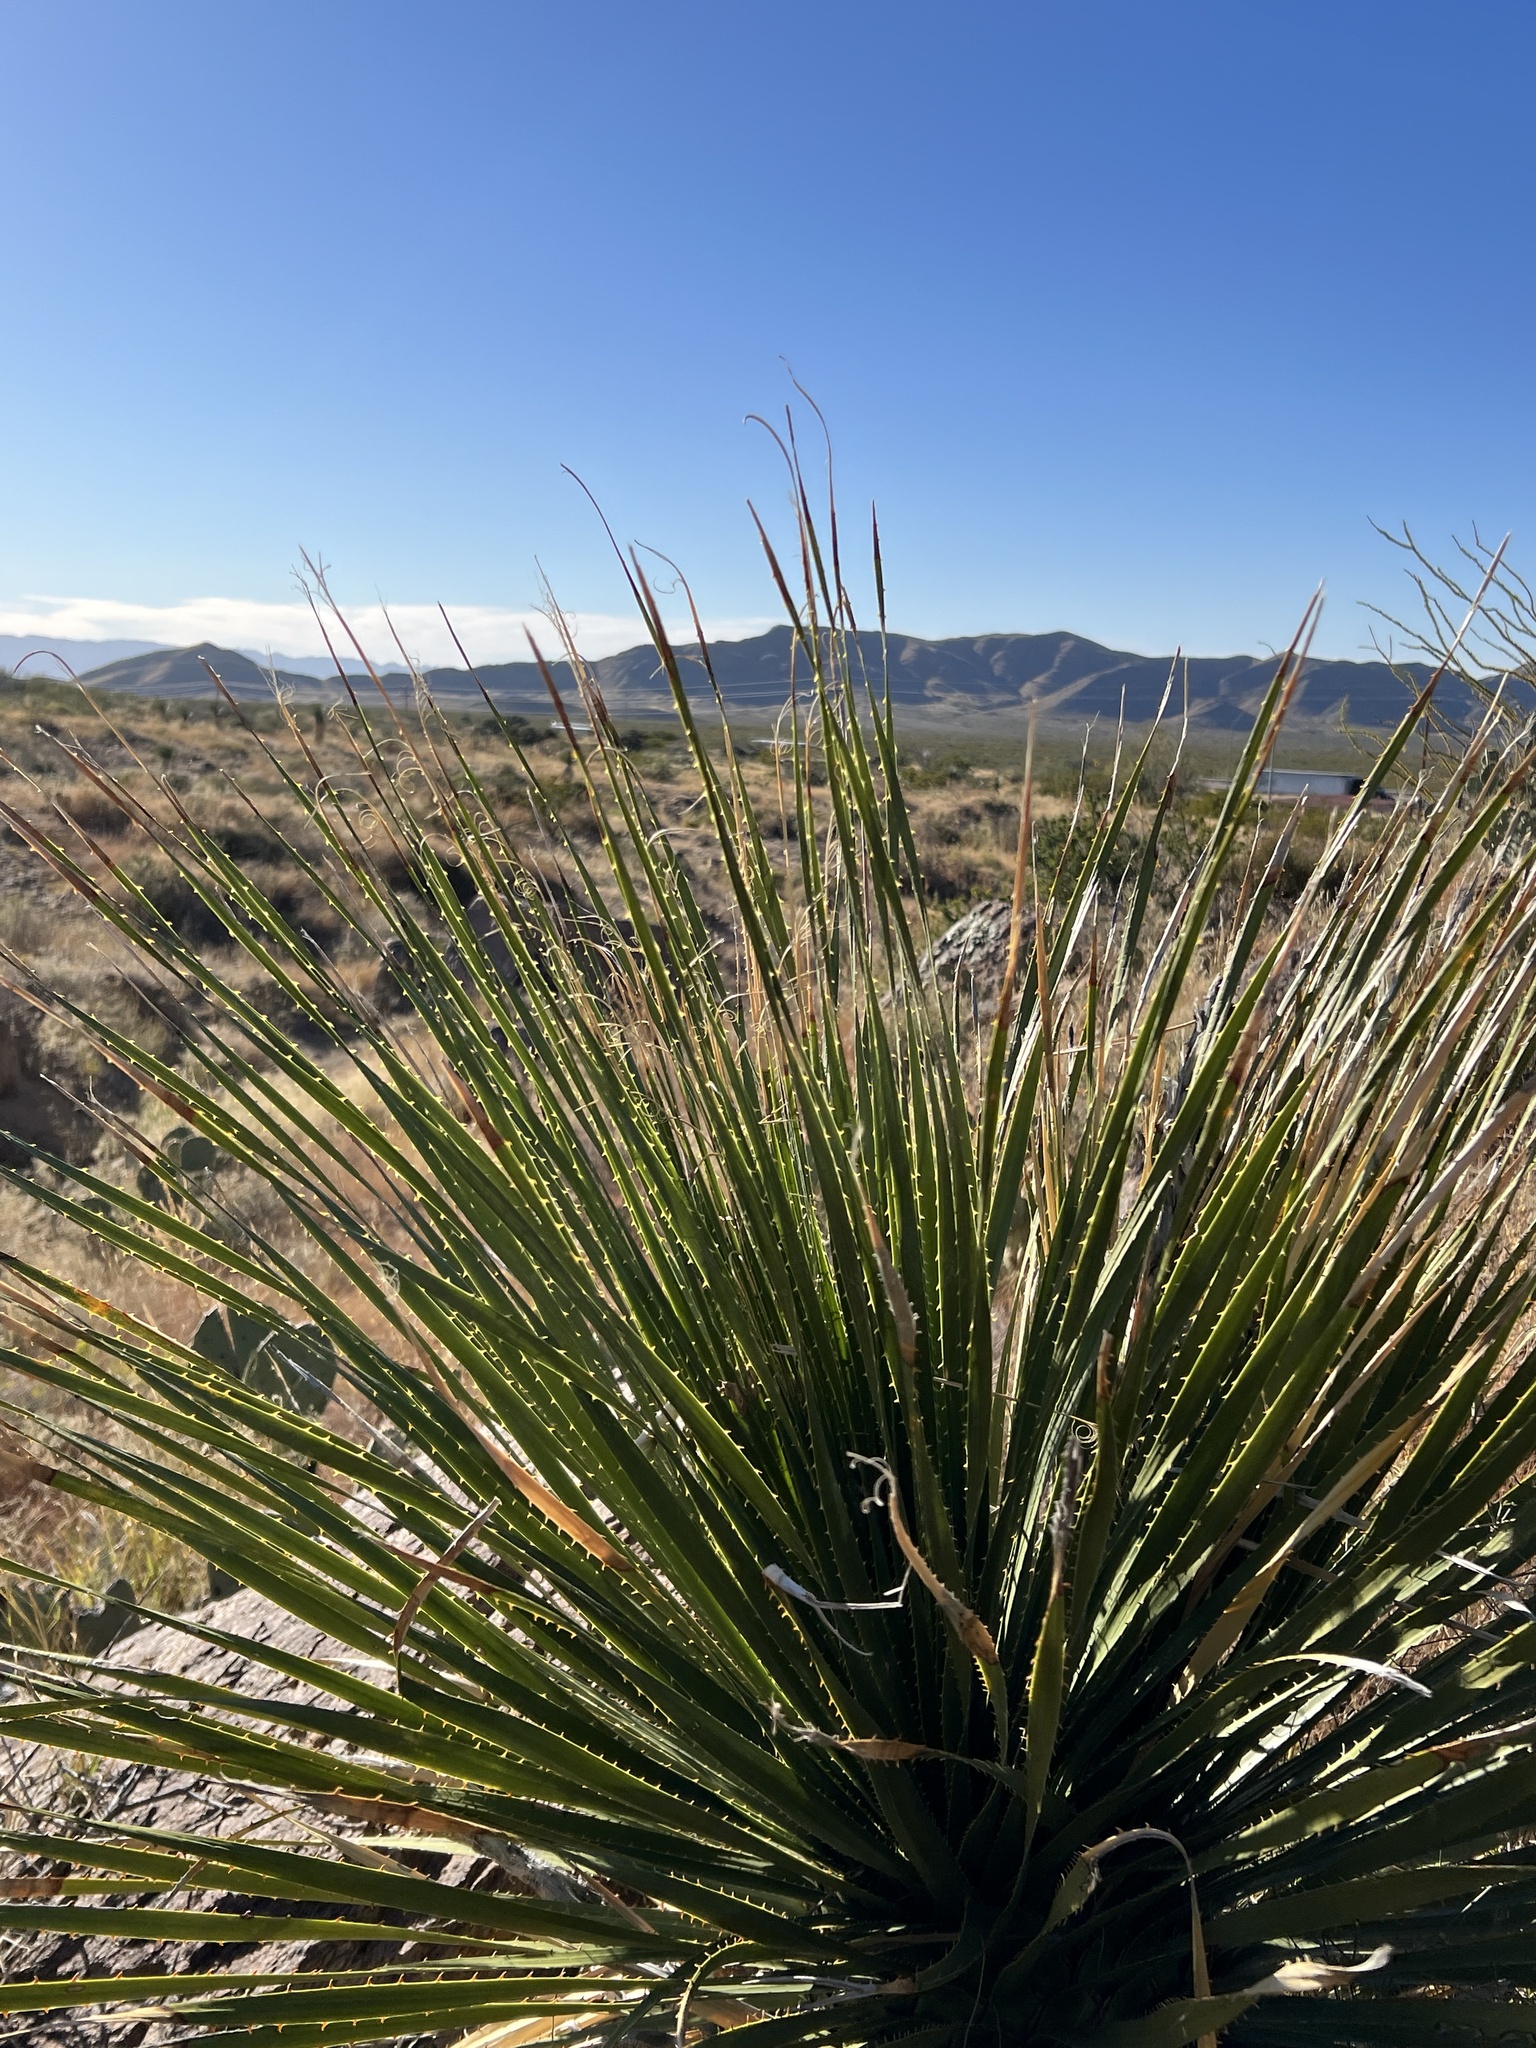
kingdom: Plantae
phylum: Tracheophyta
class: Liliopsida
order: Asparagales
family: Asparagaceae
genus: Dasylirion
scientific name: Dasylirion leiophyllum
